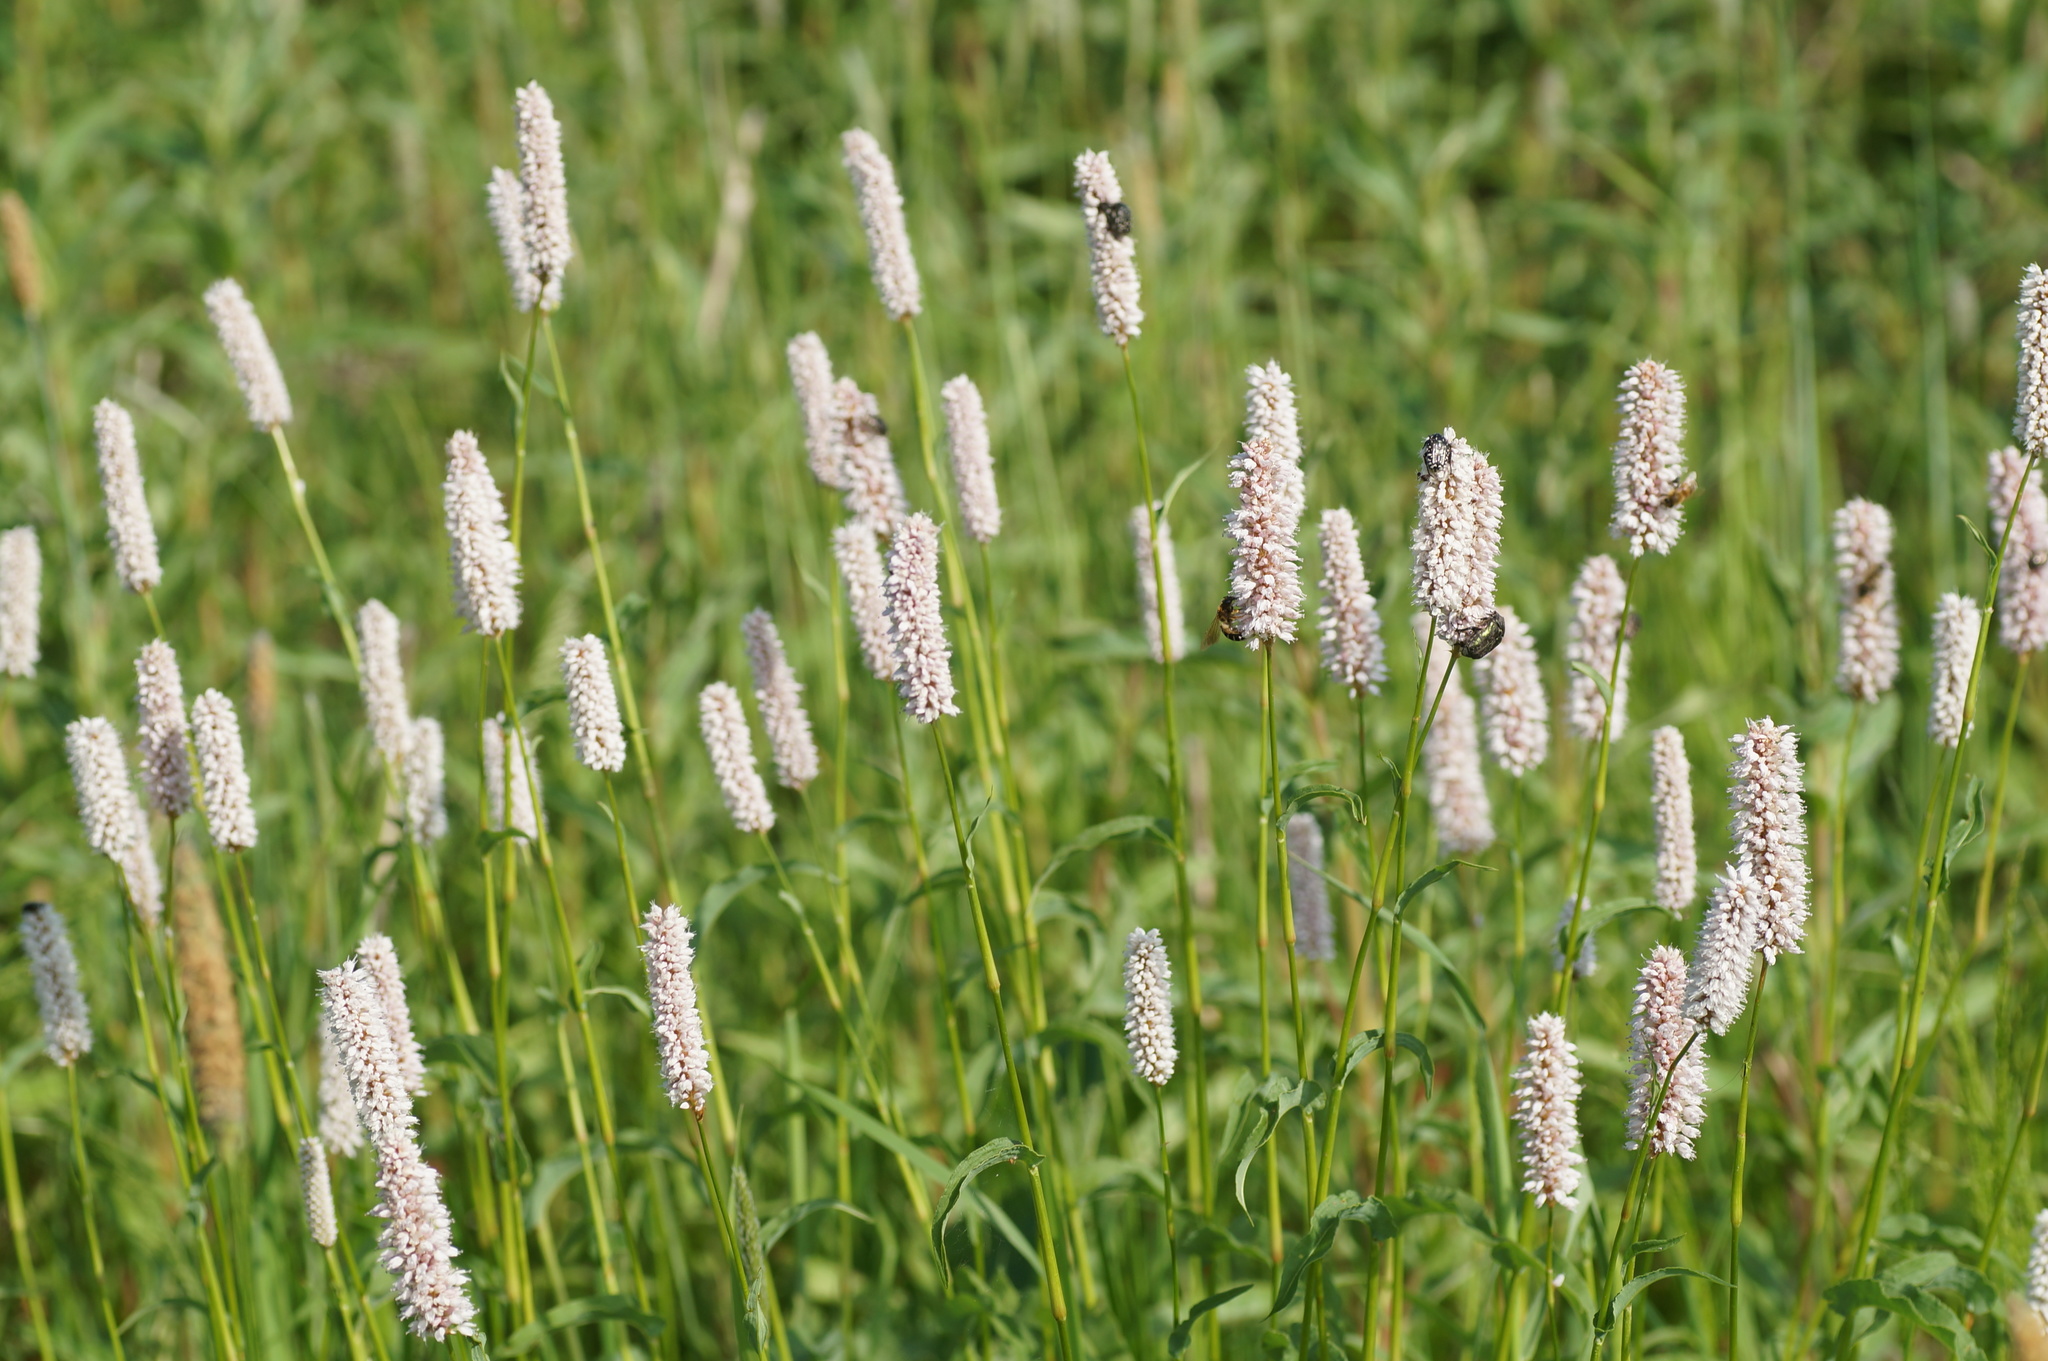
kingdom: Animalia
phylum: Arthropoda
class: Insecta
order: Coleoptera
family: Scarabaeidae
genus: Oxythyrea
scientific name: Oxythyrea funesta
